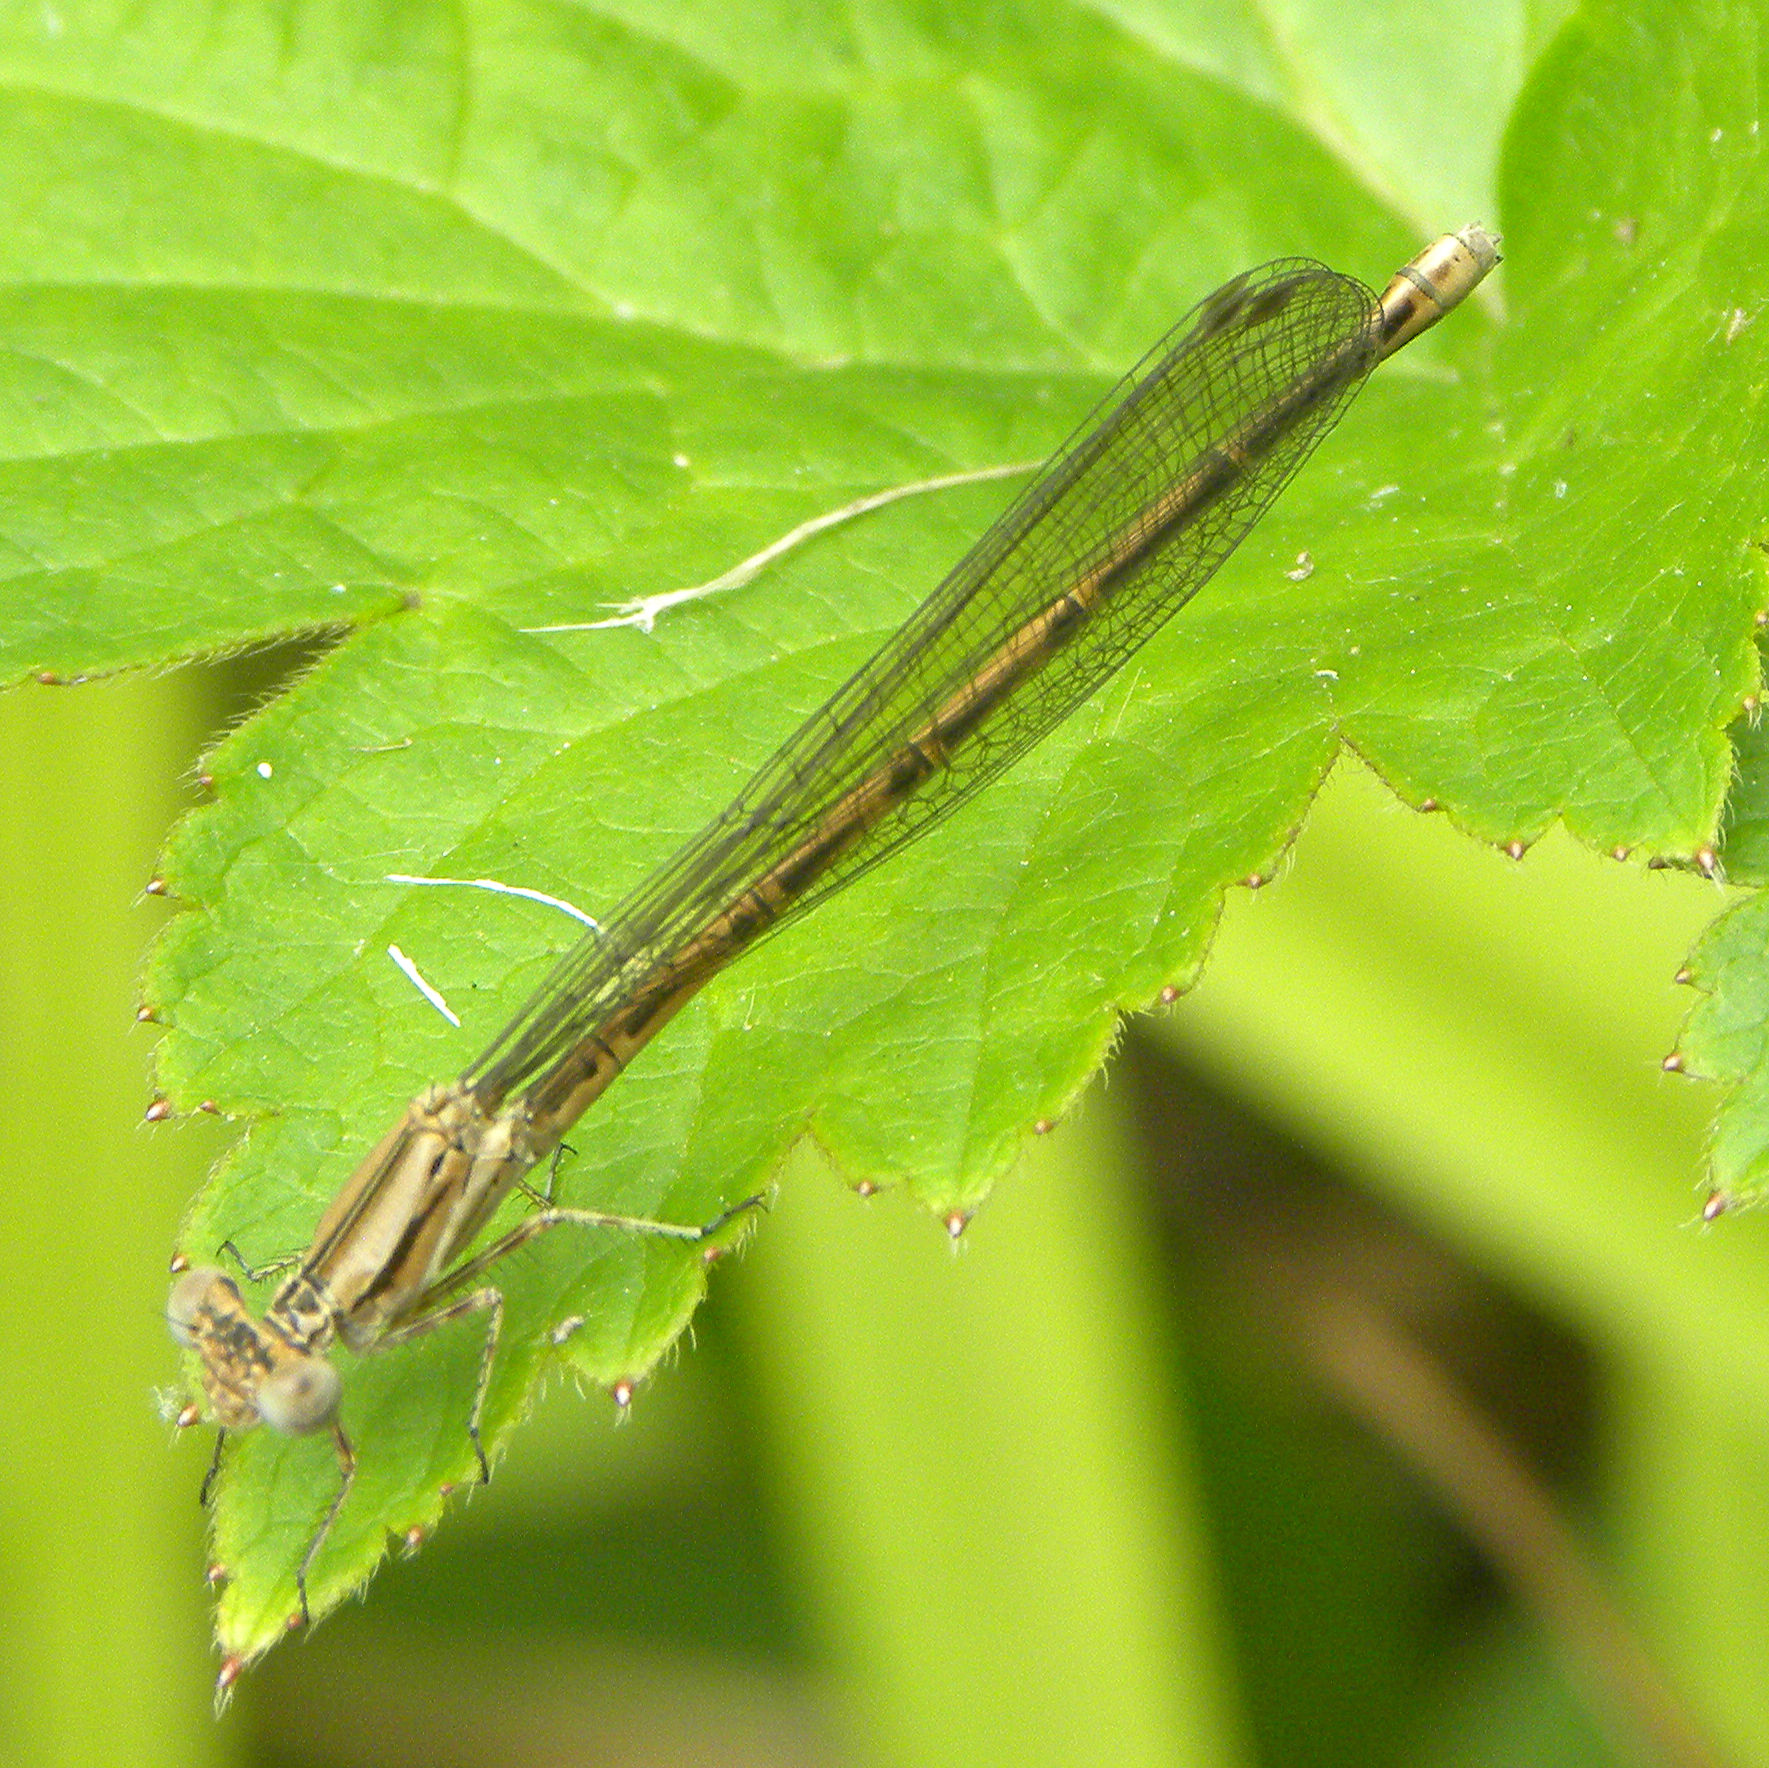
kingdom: Animalia
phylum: Arthropoda
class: Insecta
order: Odonata
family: Coenagrionidae
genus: Argia
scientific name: Argia fumipennis
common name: Variable dancer
